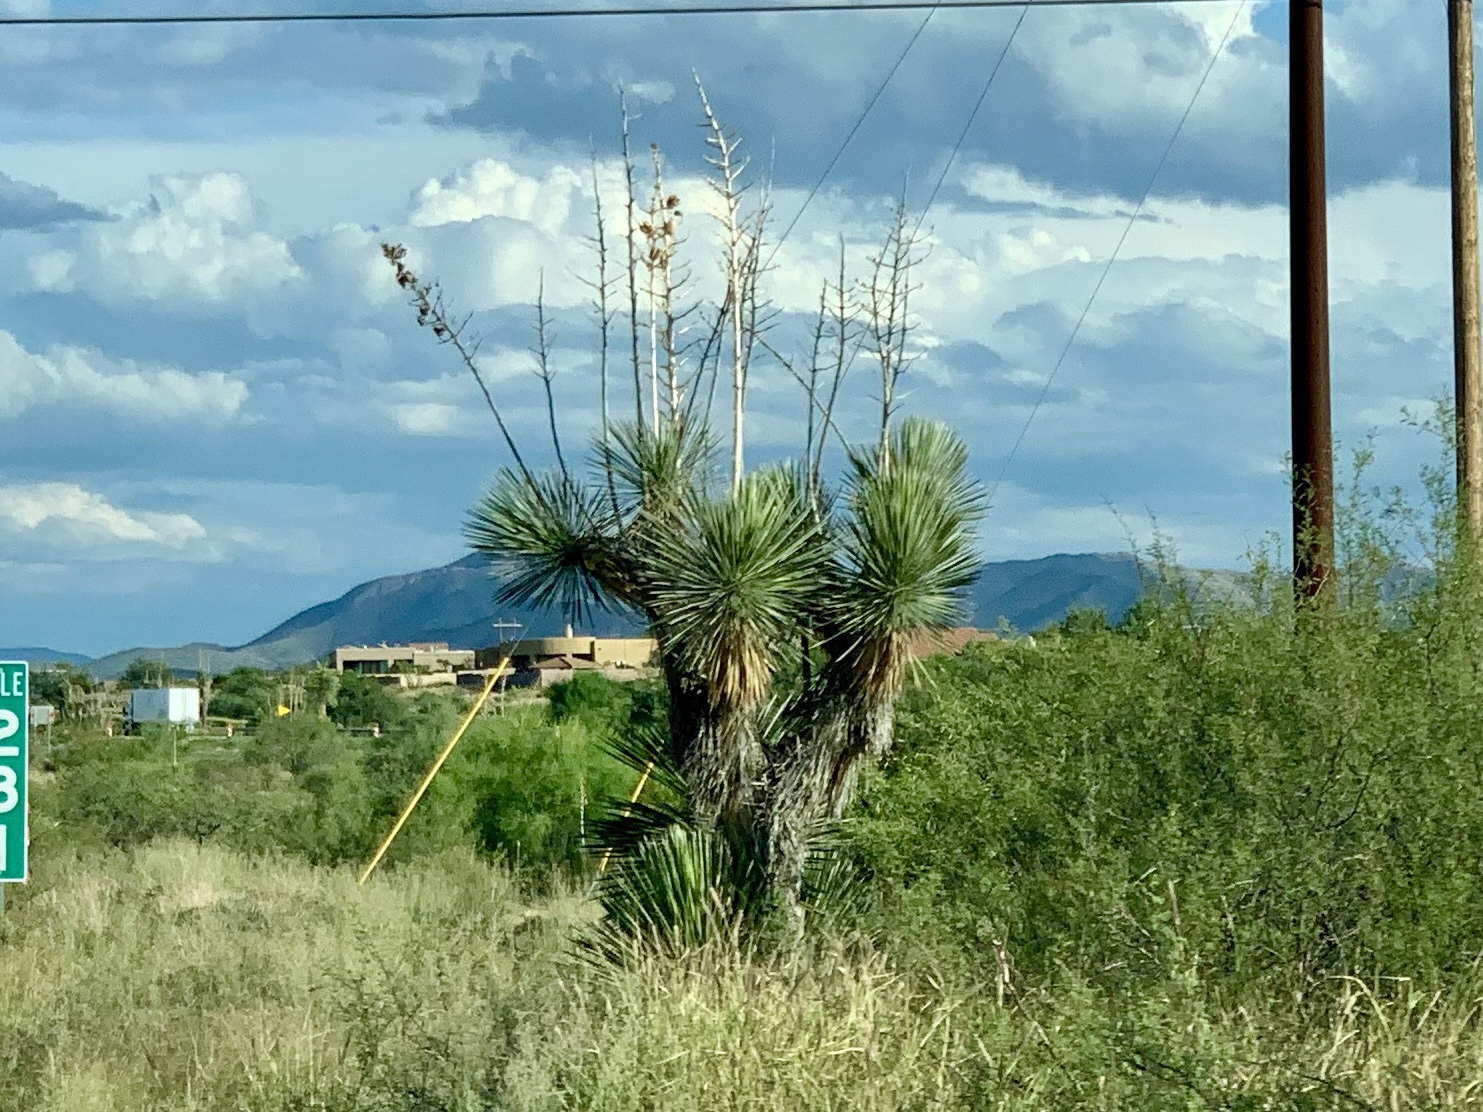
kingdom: Plantae
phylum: Tracheophyta
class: Liliopsida
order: Asparagales
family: Asparagaceae
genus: Yucca
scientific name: Yucca elata
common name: Palmella
